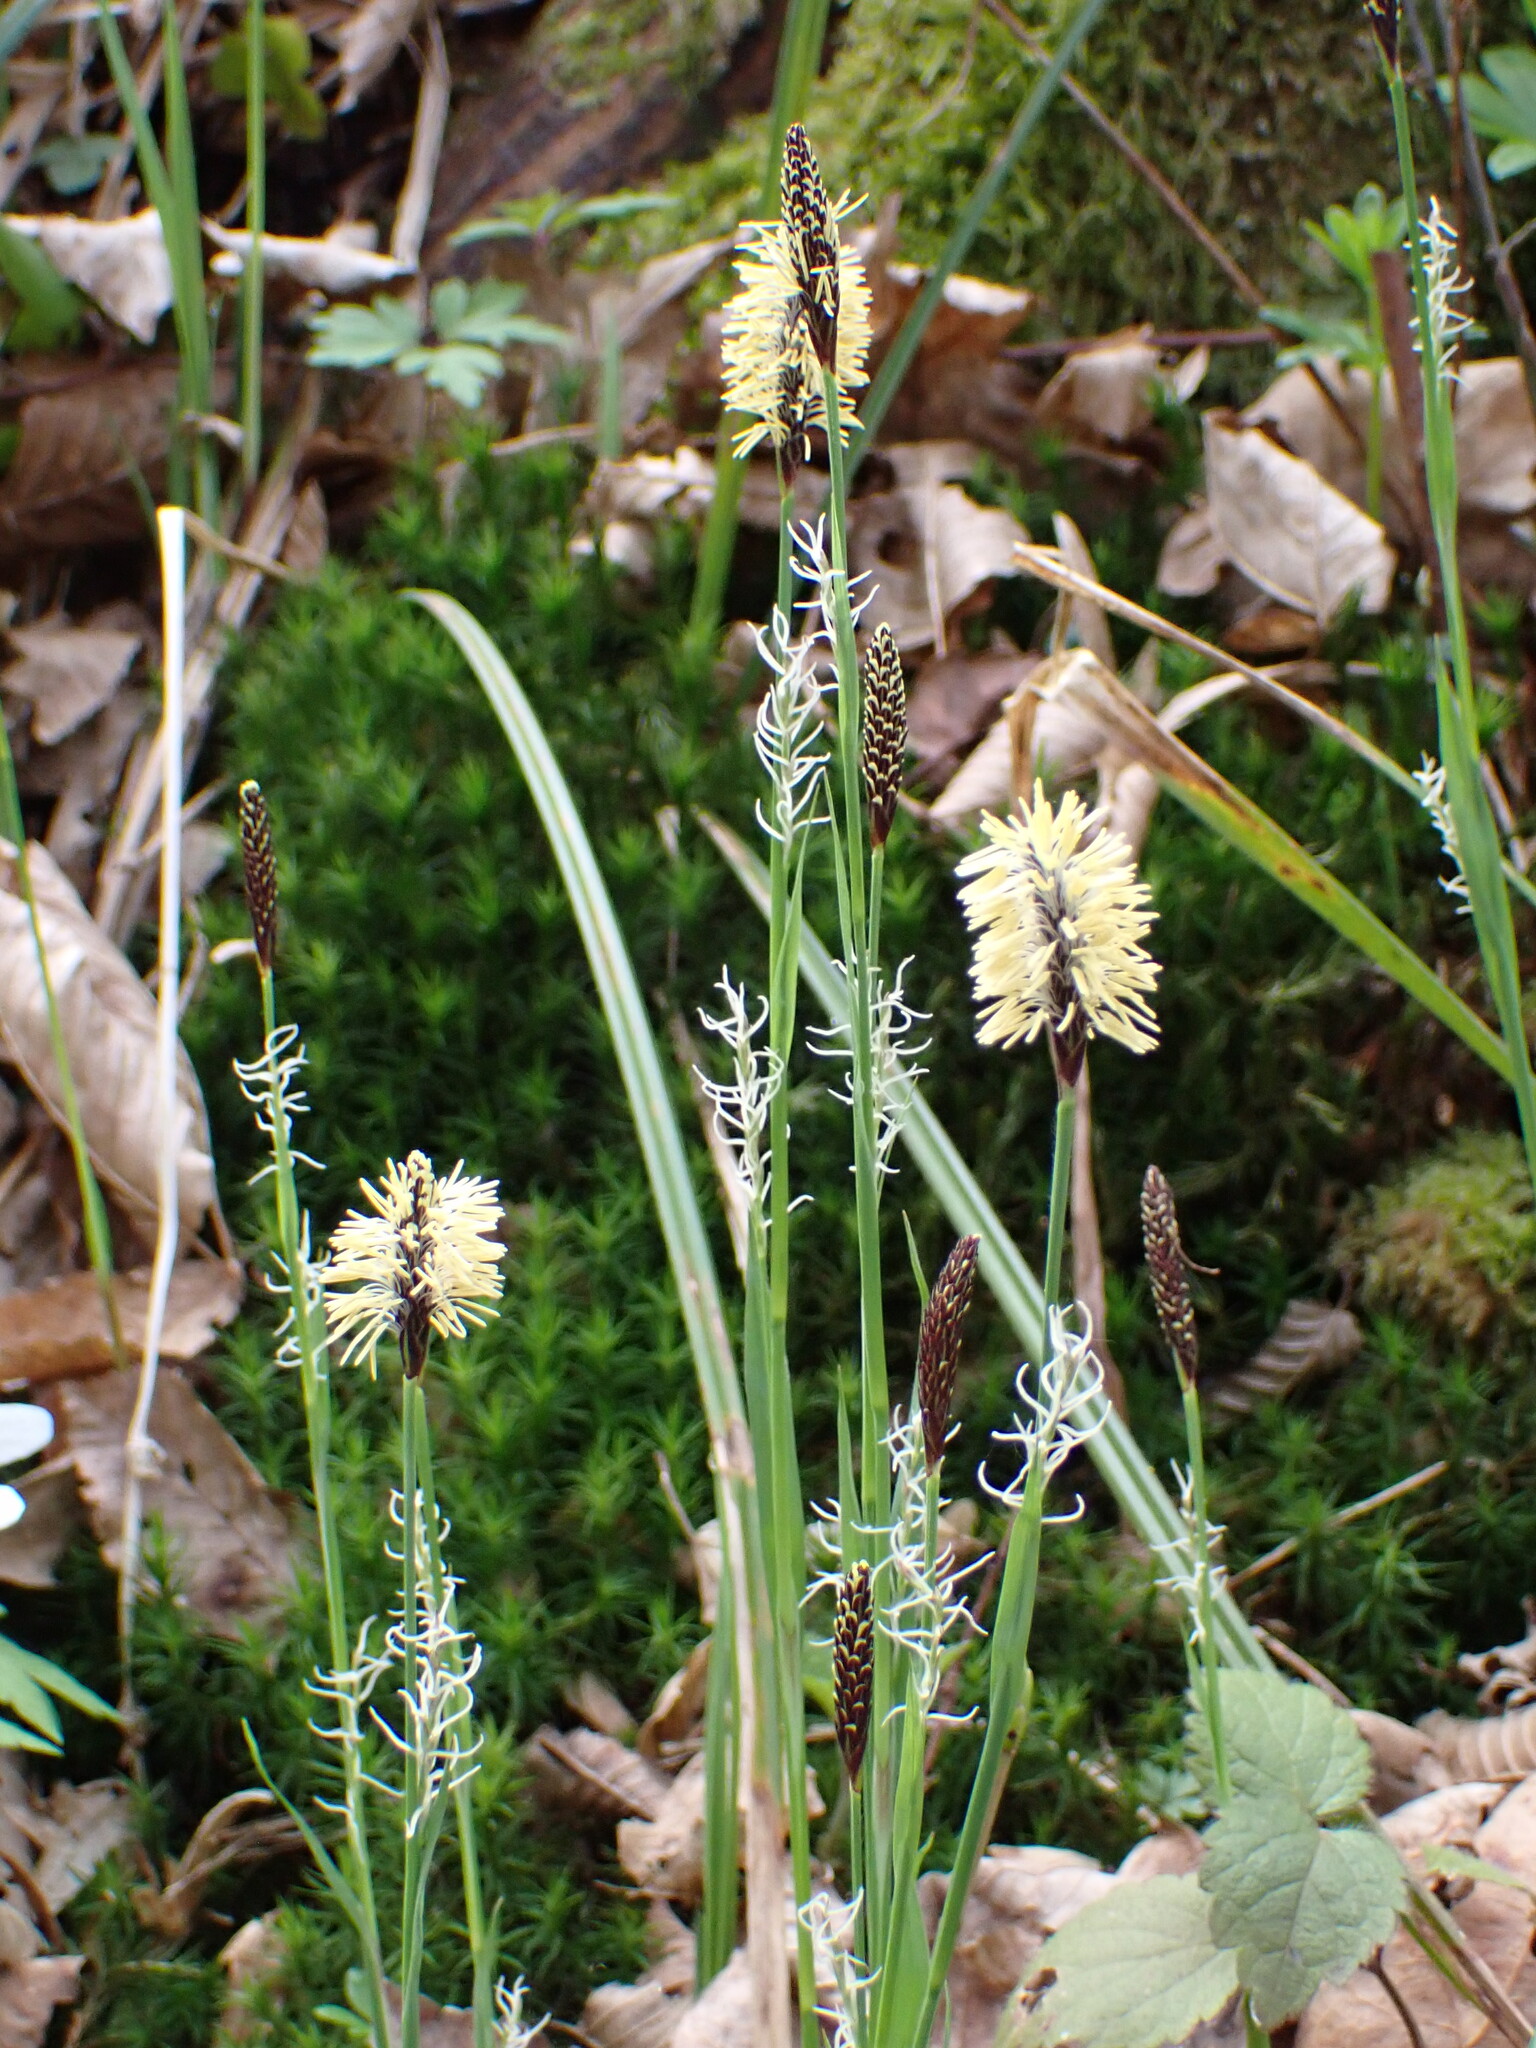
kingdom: Plantae
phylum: Tracheophyta
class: Liliopsida
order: Poales
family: Cyperaceae
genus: Carex
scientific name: Carex pilosa
